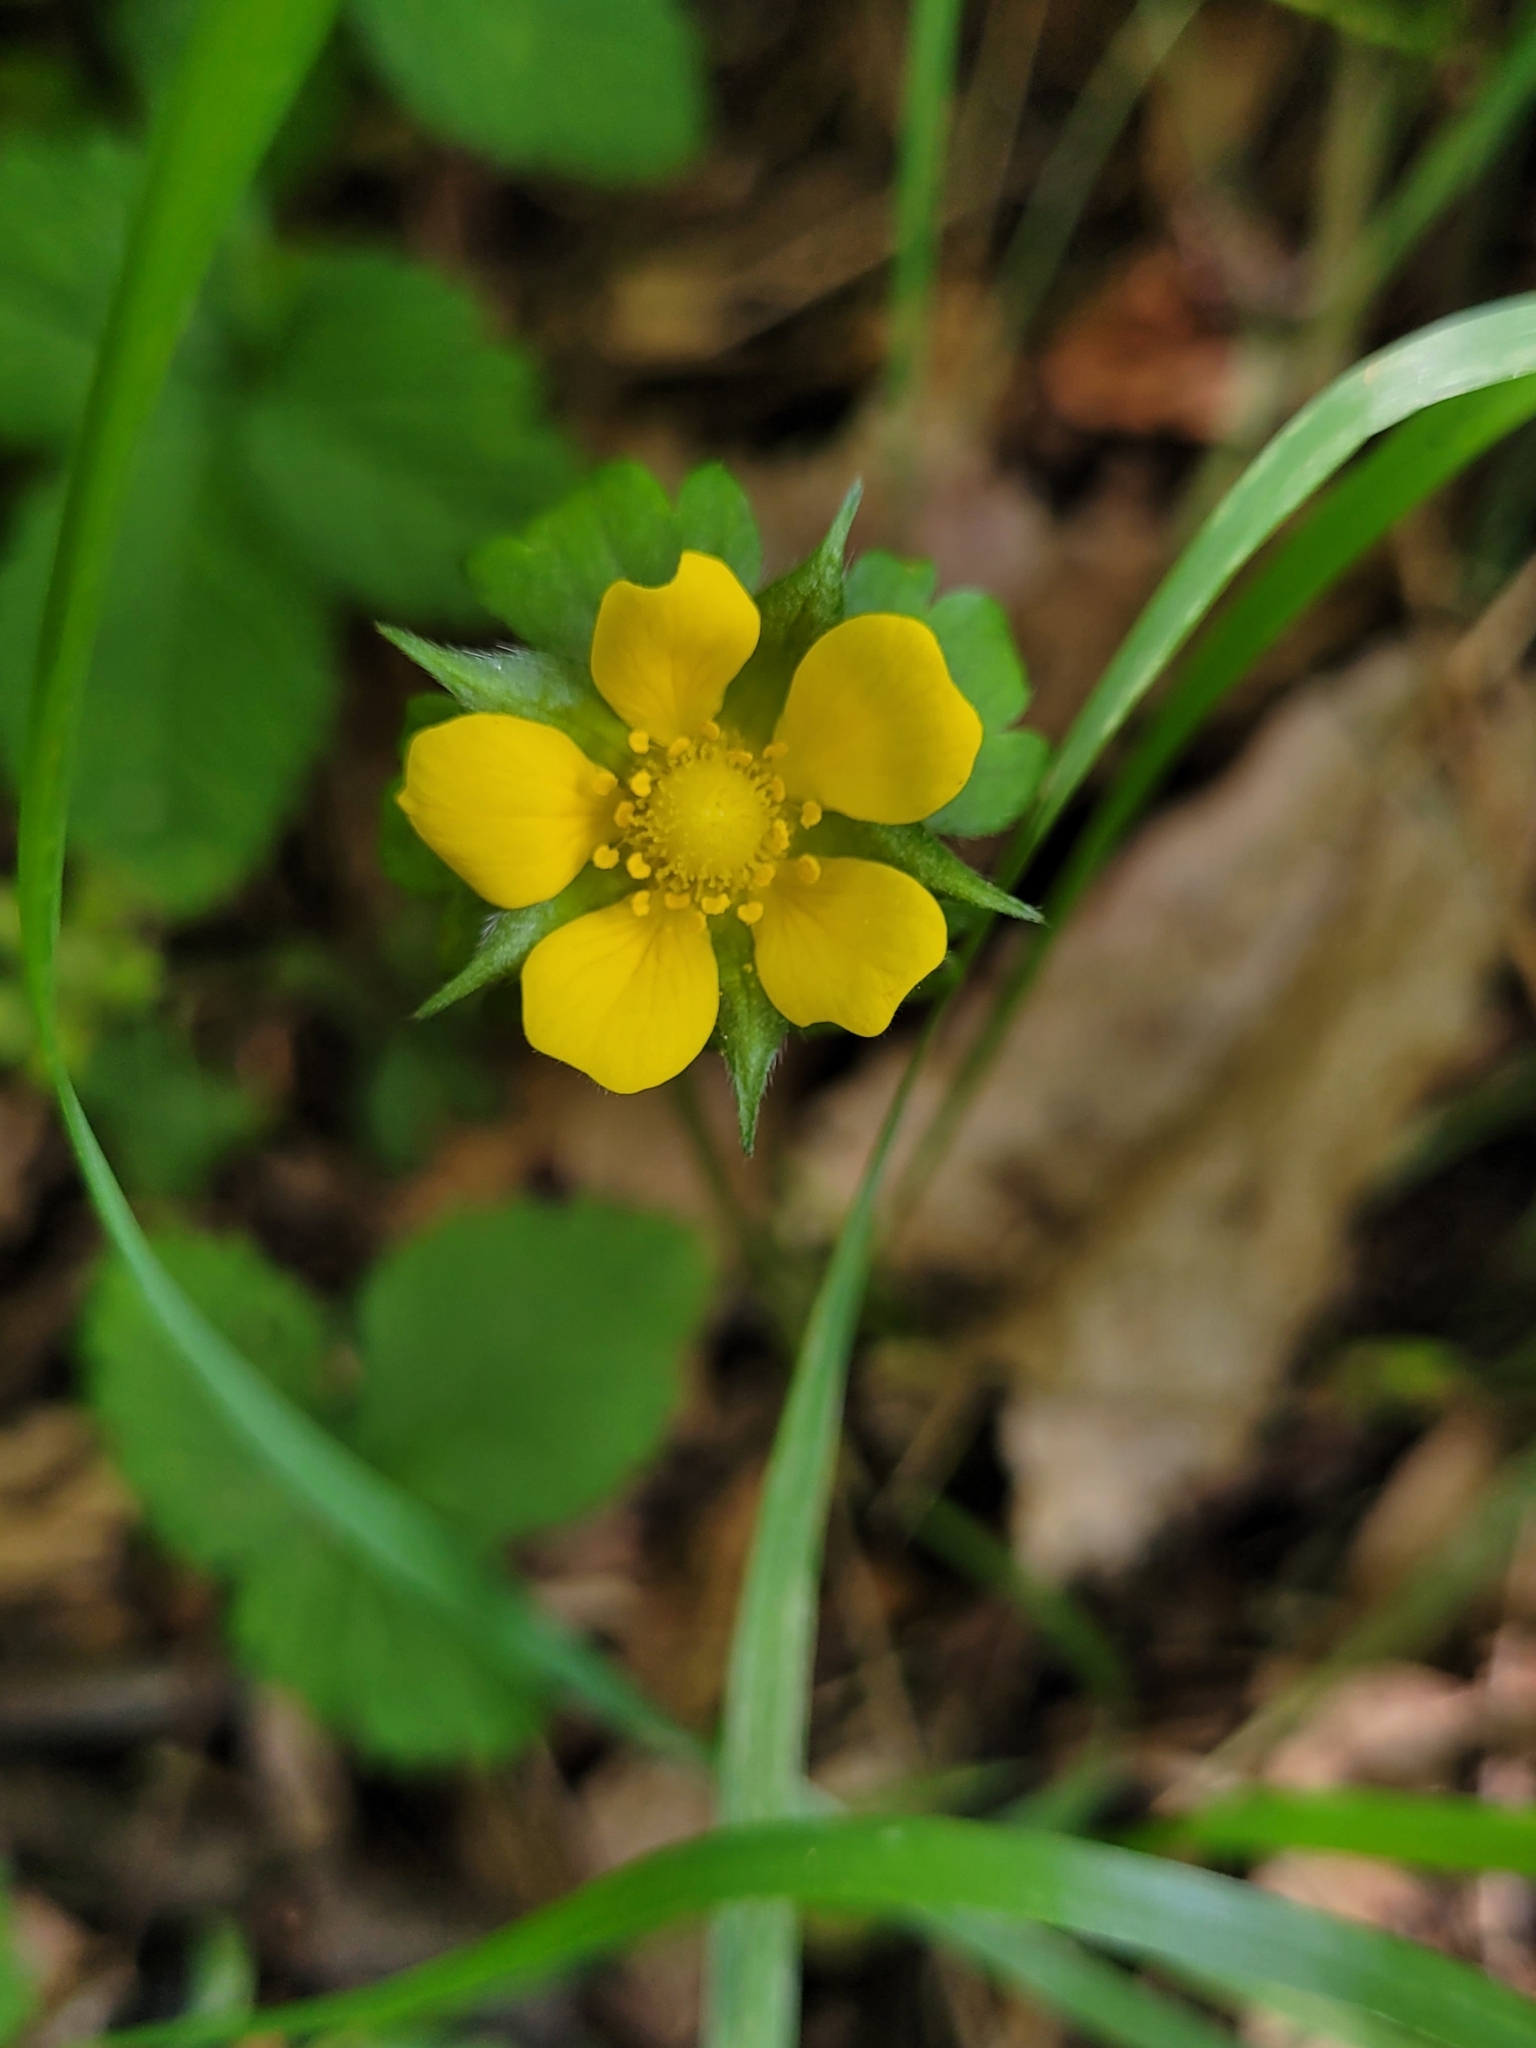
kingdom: Plantae
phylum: Tracheophyta
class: Magnoliopsida
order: Rosales
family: Rosaceae
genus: Potentilla
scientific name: Potentilla indica
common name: Yellow-flowered strawberry
